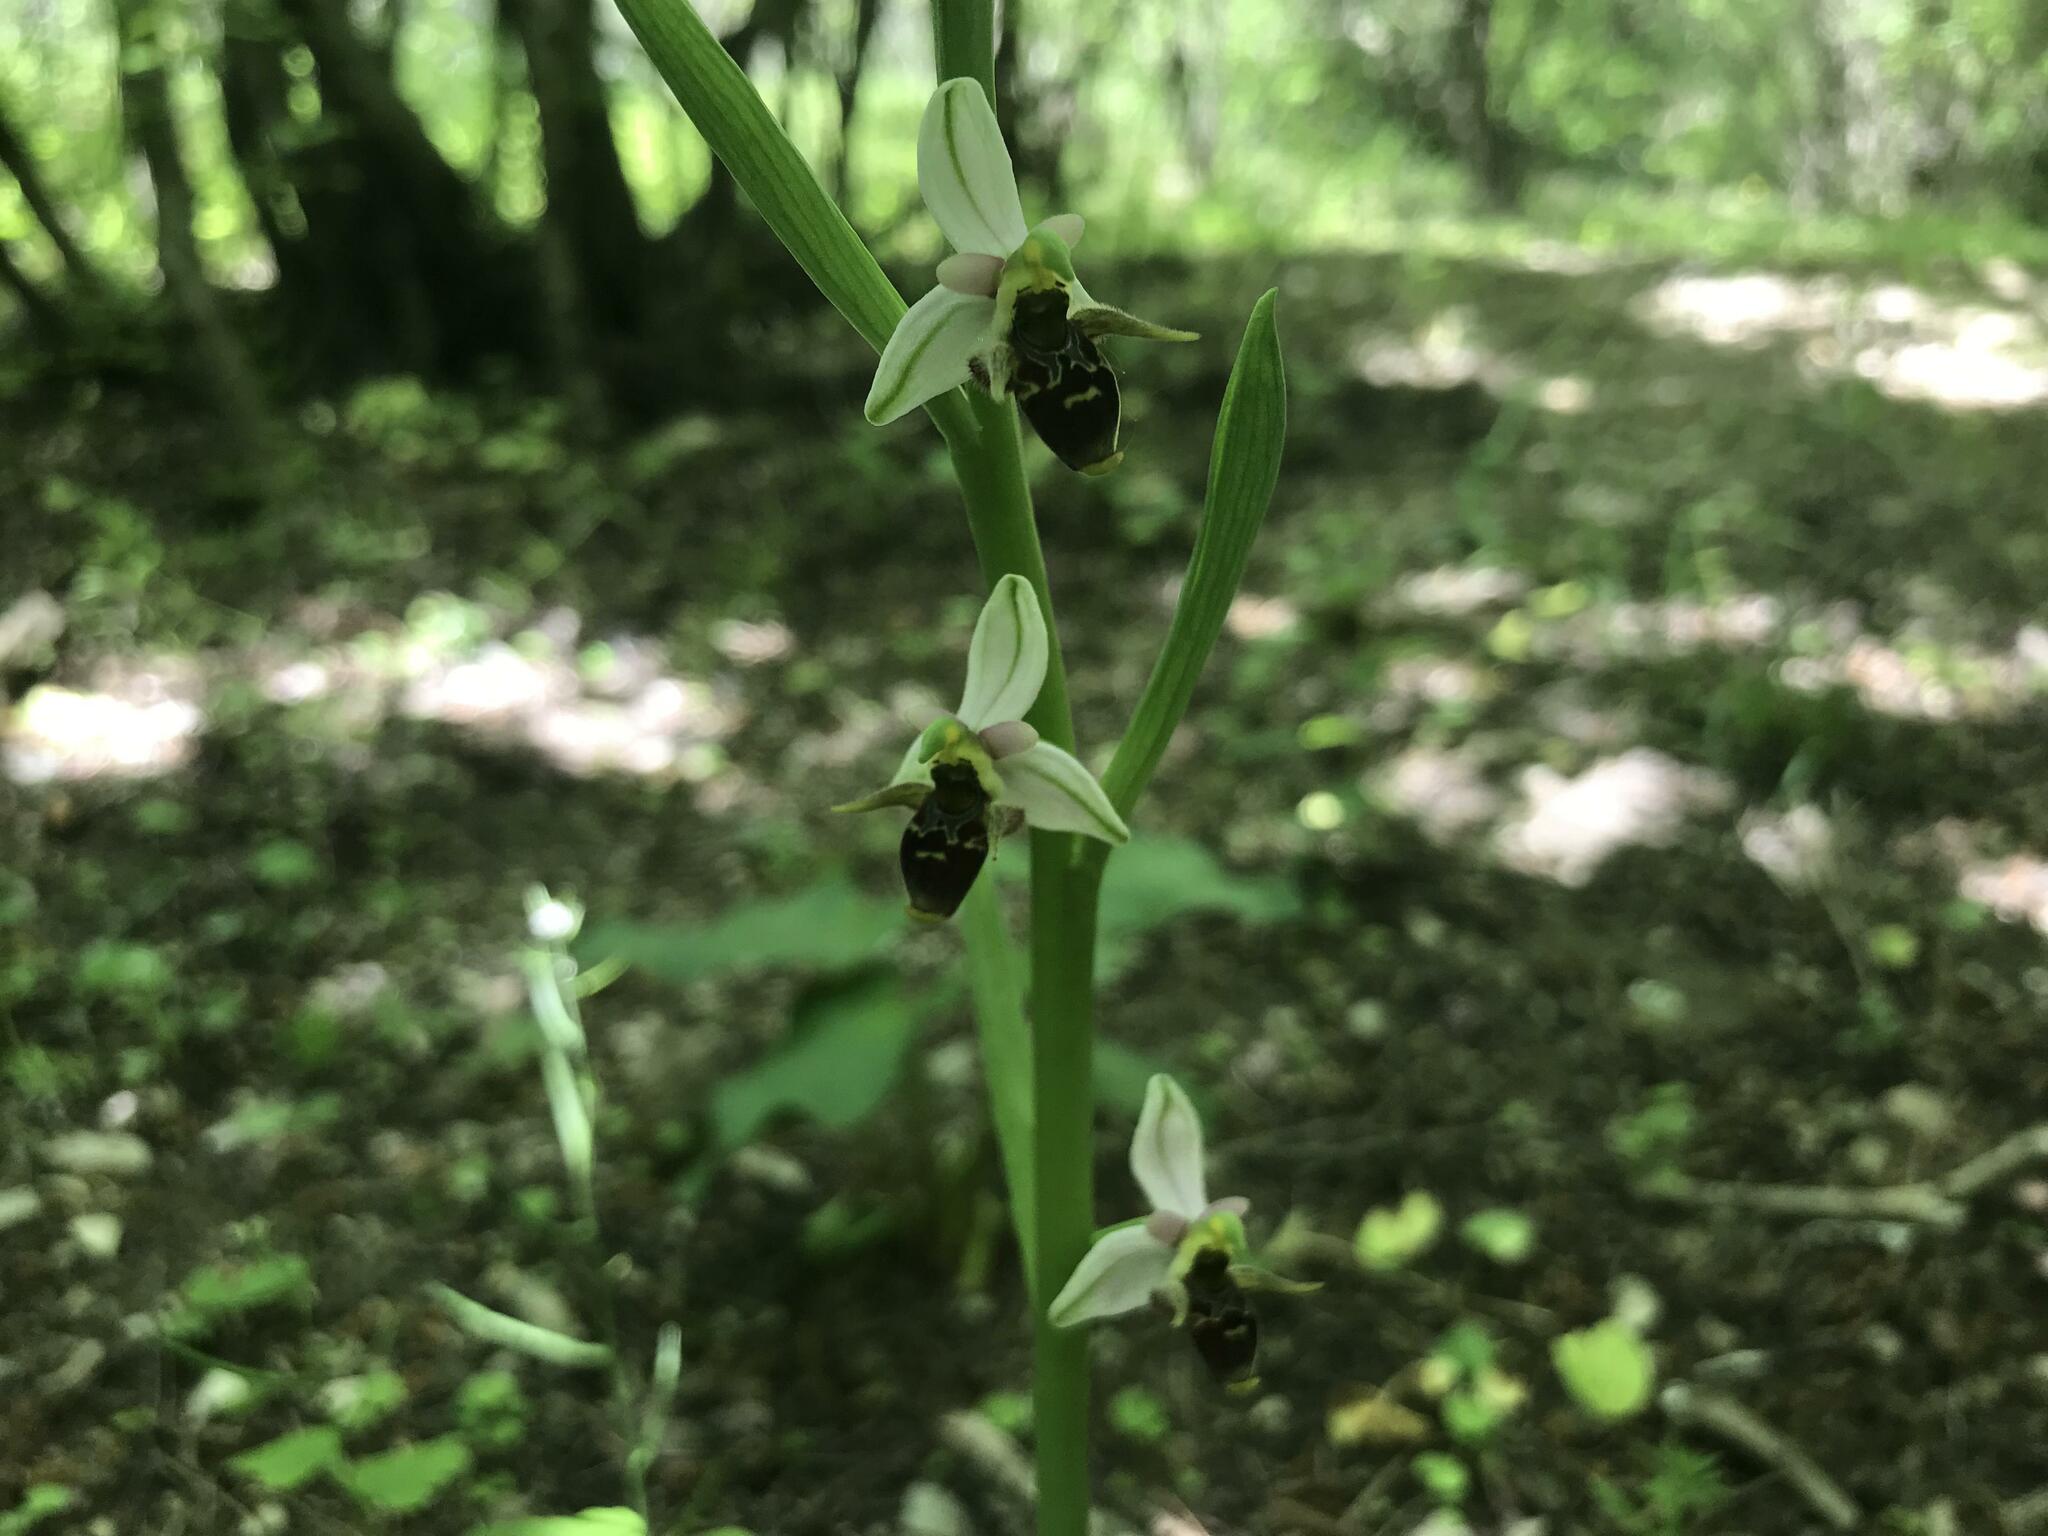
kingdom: Plantae
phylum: Tracheophyta
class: Liliopsida
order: Asparagales
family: Orchidaceae
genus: Ophrys
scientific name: Ophrys
